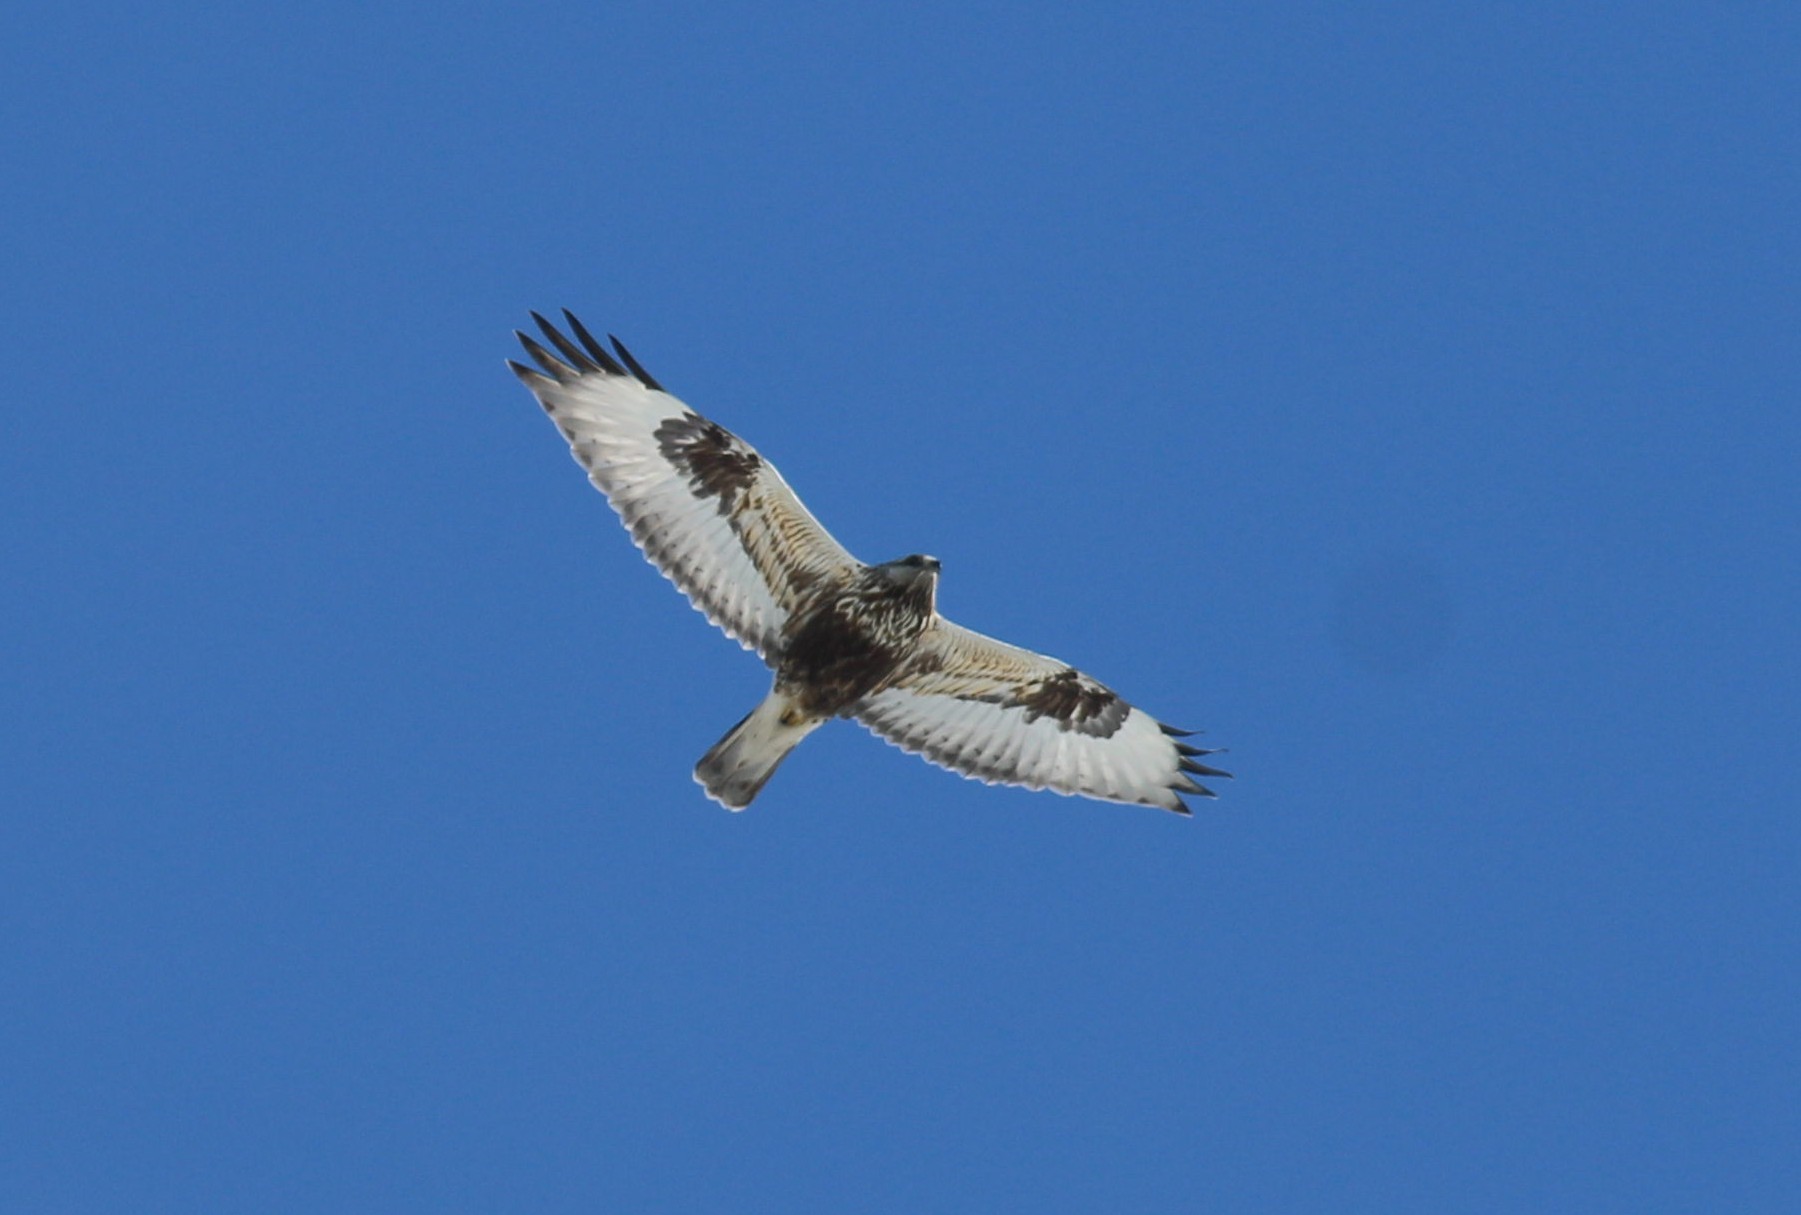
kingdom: Animalia
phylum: Chordata
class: Aves
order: Accipitriformes
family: Accipitridae
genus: Buteo
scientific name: Buteo lagopus
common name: Rough-legged buzzard
